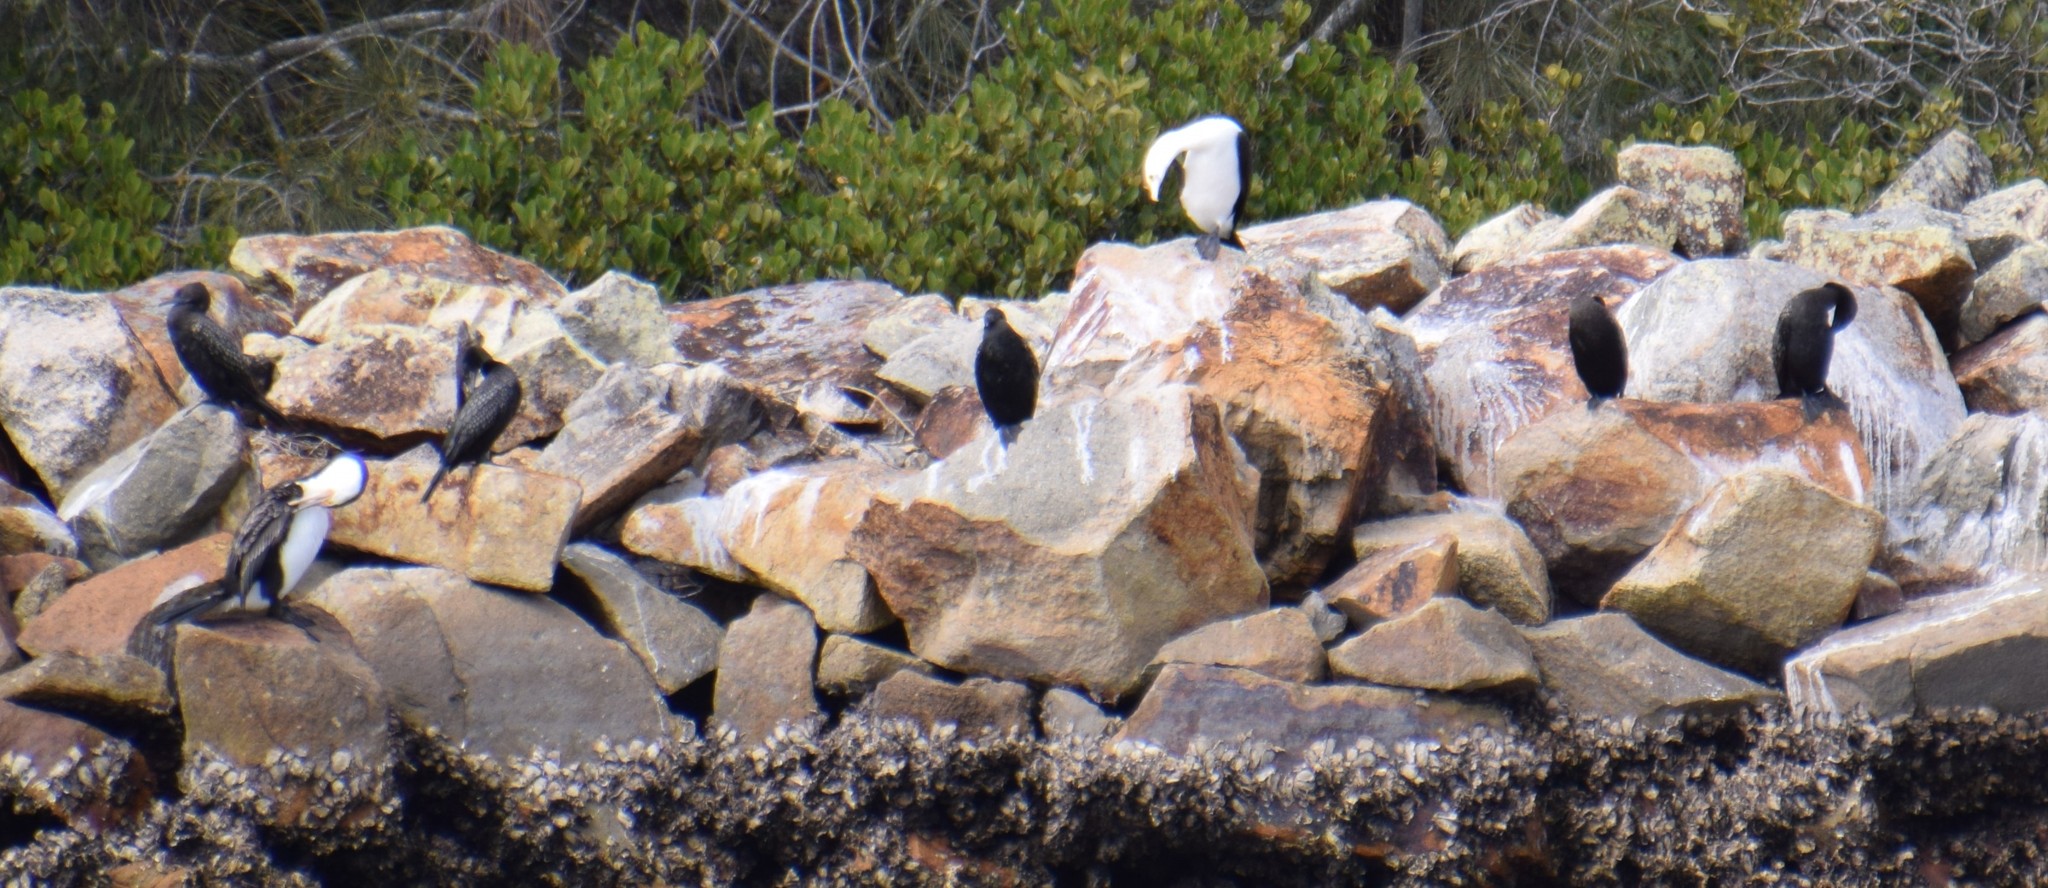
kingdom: Animalia
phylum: Chordata
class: Aves
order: Suliformes
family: Phalacrocoracidae
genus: Phalacrocorax
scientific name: Phalacrocorax varius
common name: Pied cormorant
